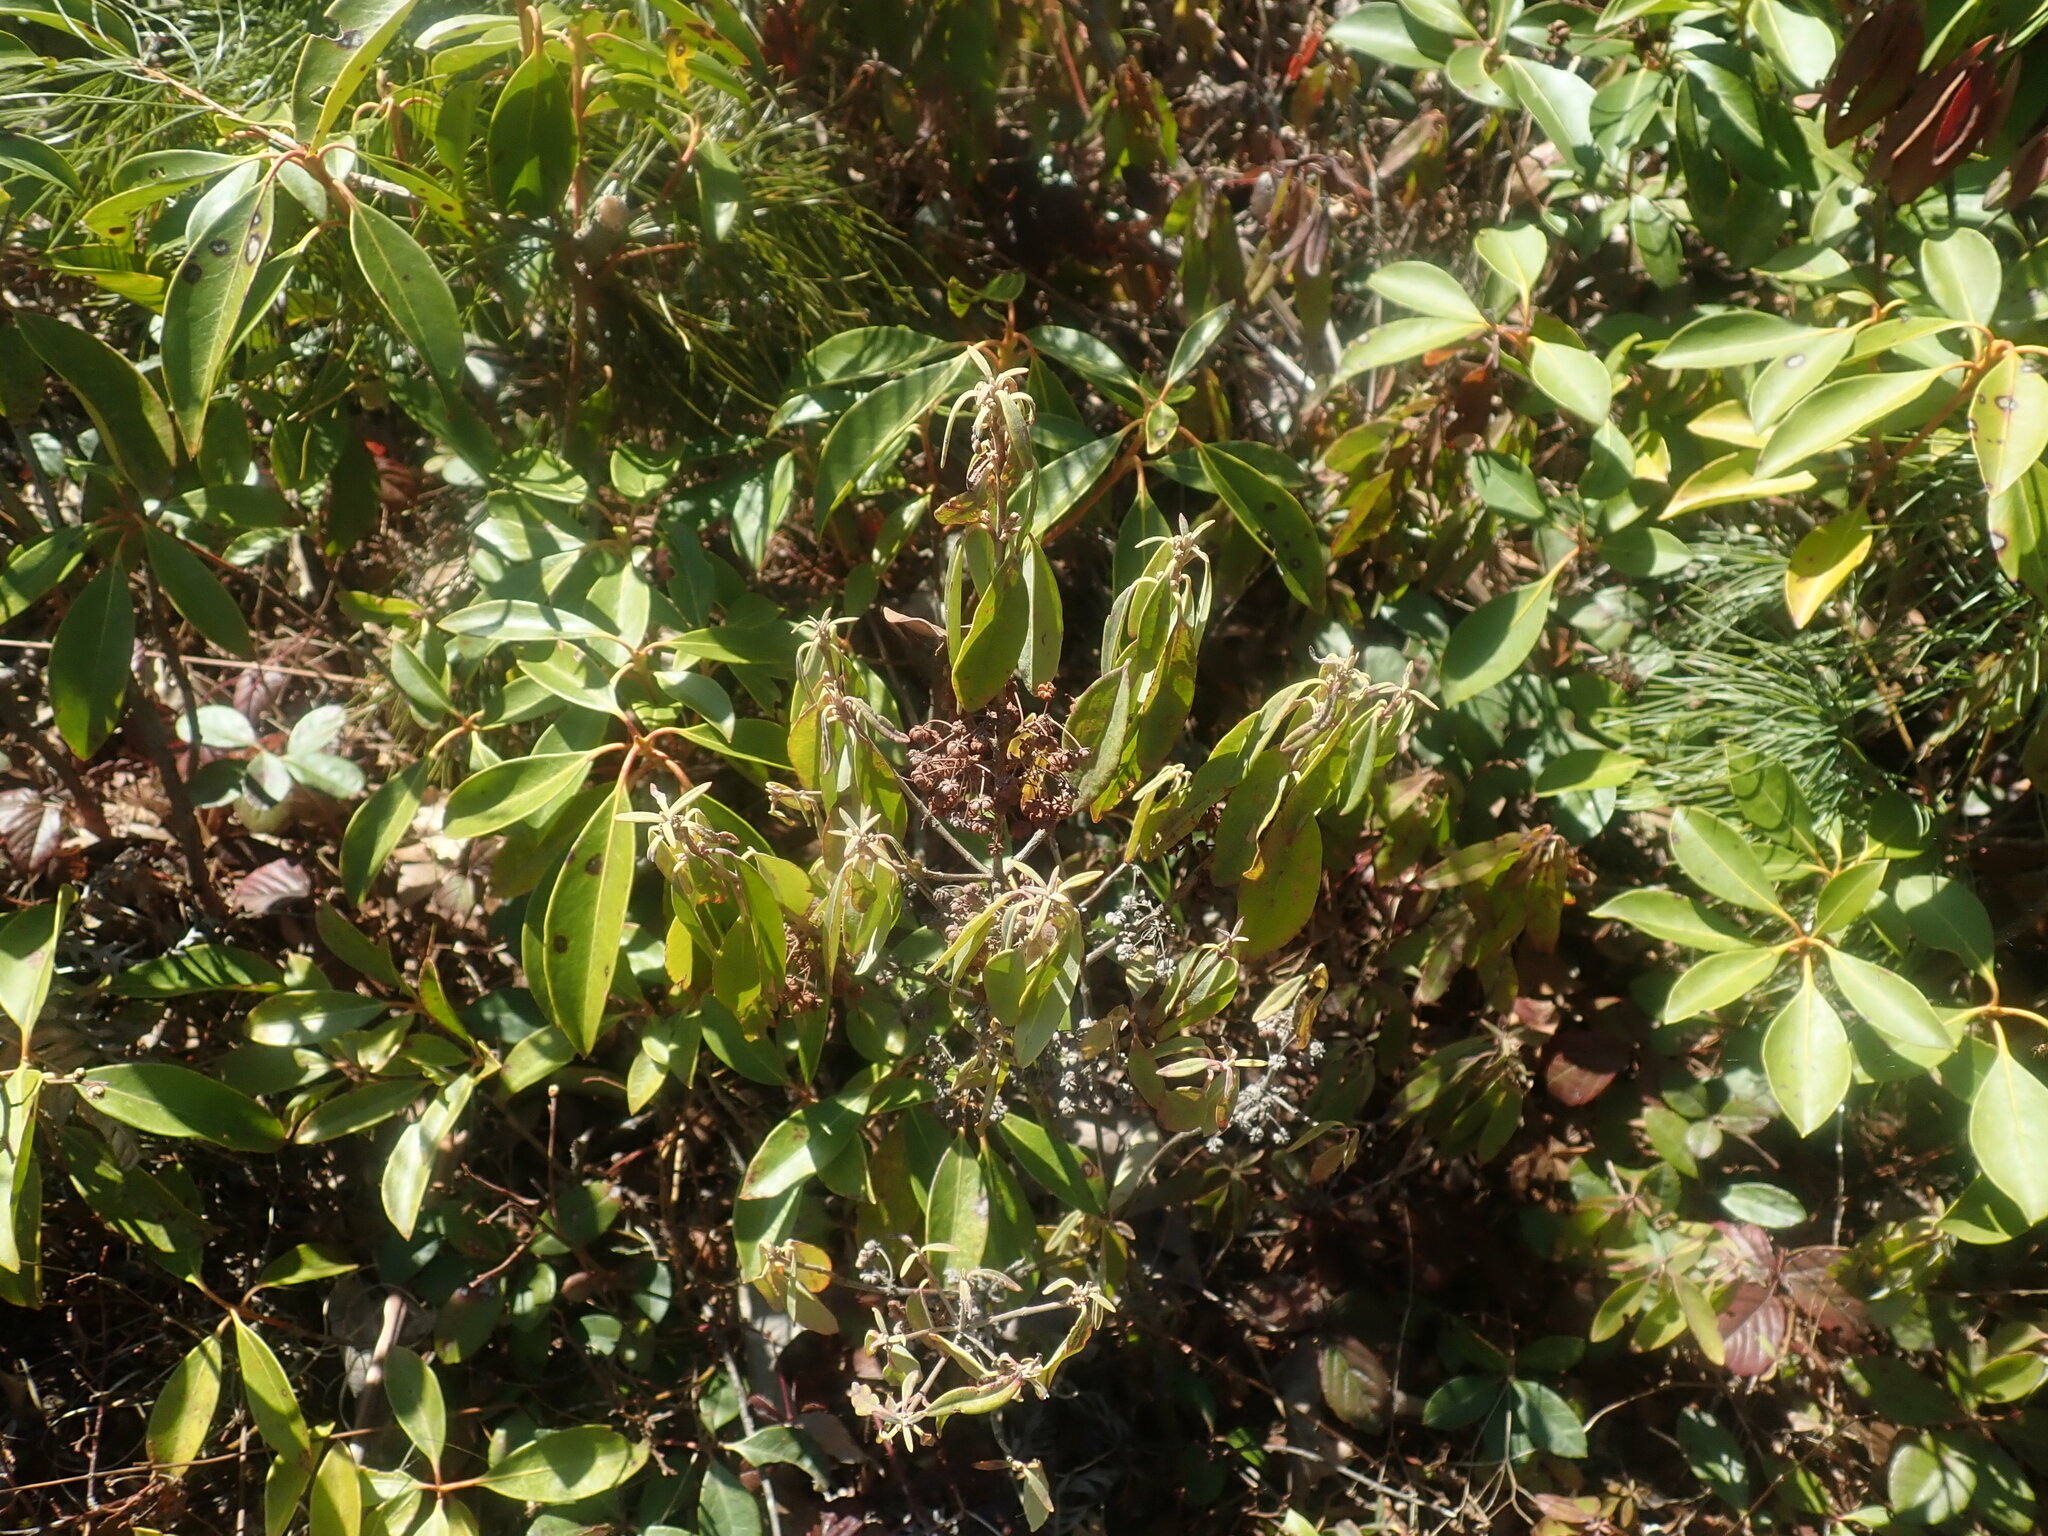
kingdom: Plantae
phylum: Tracheophyta
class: Magnoliopsida
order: Ericales
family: Ericaceae
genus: Kalmia
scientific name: Kalmia angustifolia
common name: Sheep-laurel
